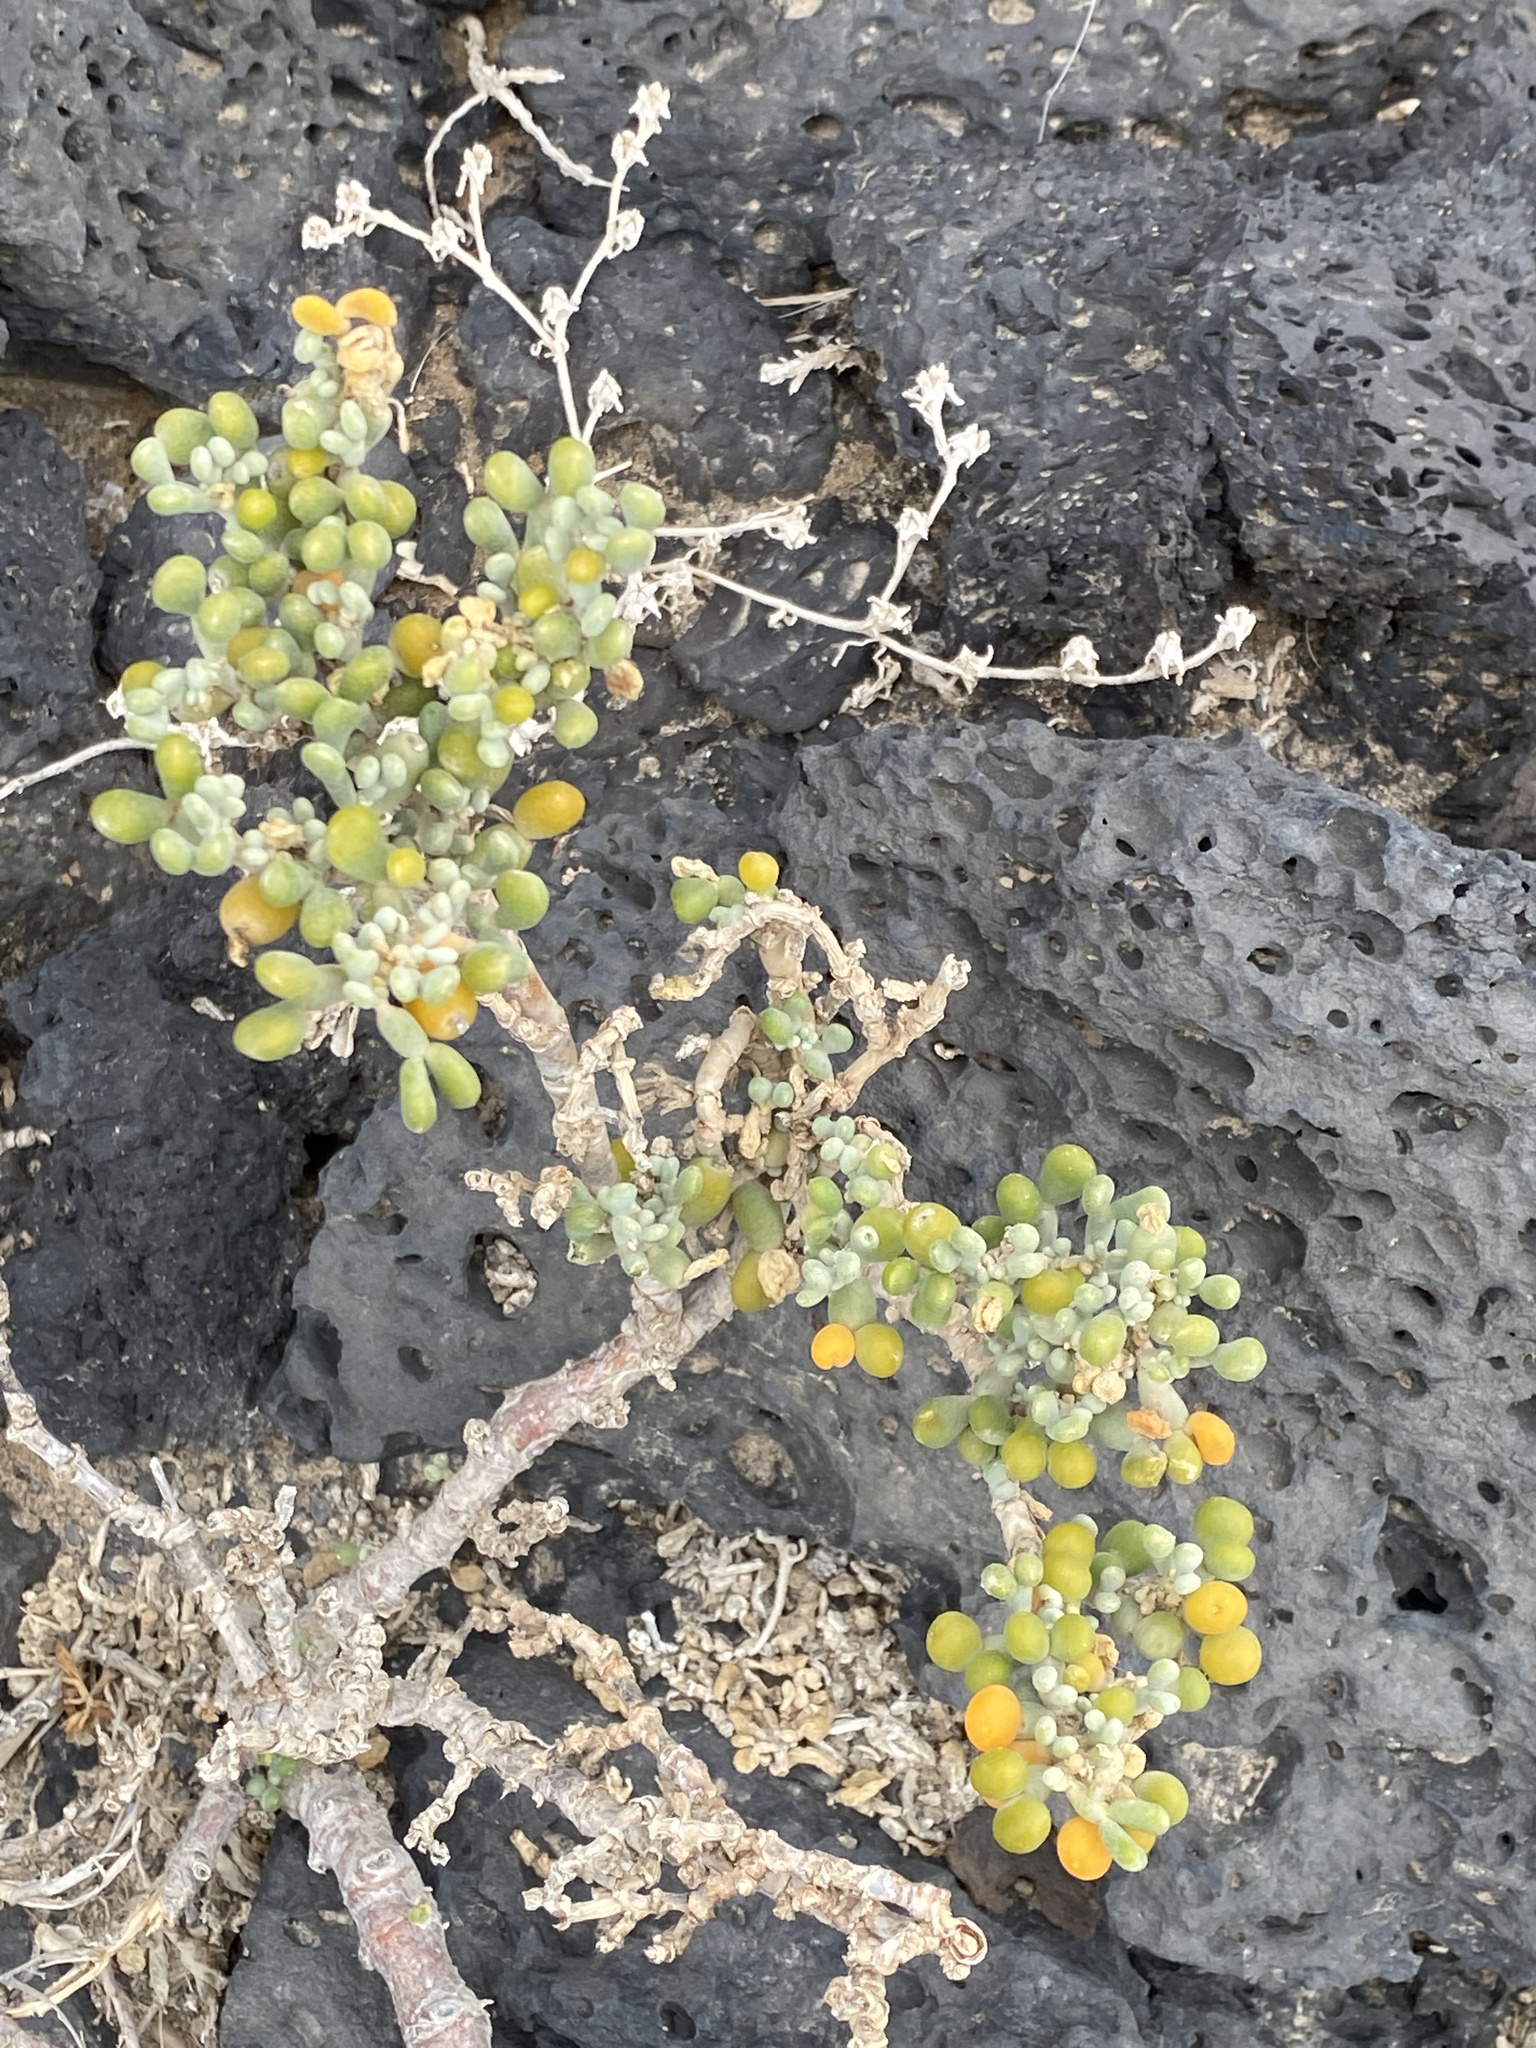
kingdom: Plantae
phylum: Tracheophyta
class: Magnoliopsida
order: Zygophyllales
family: Zygophyllaceae
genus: Tetraena
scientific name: Tetraena fontanesii
